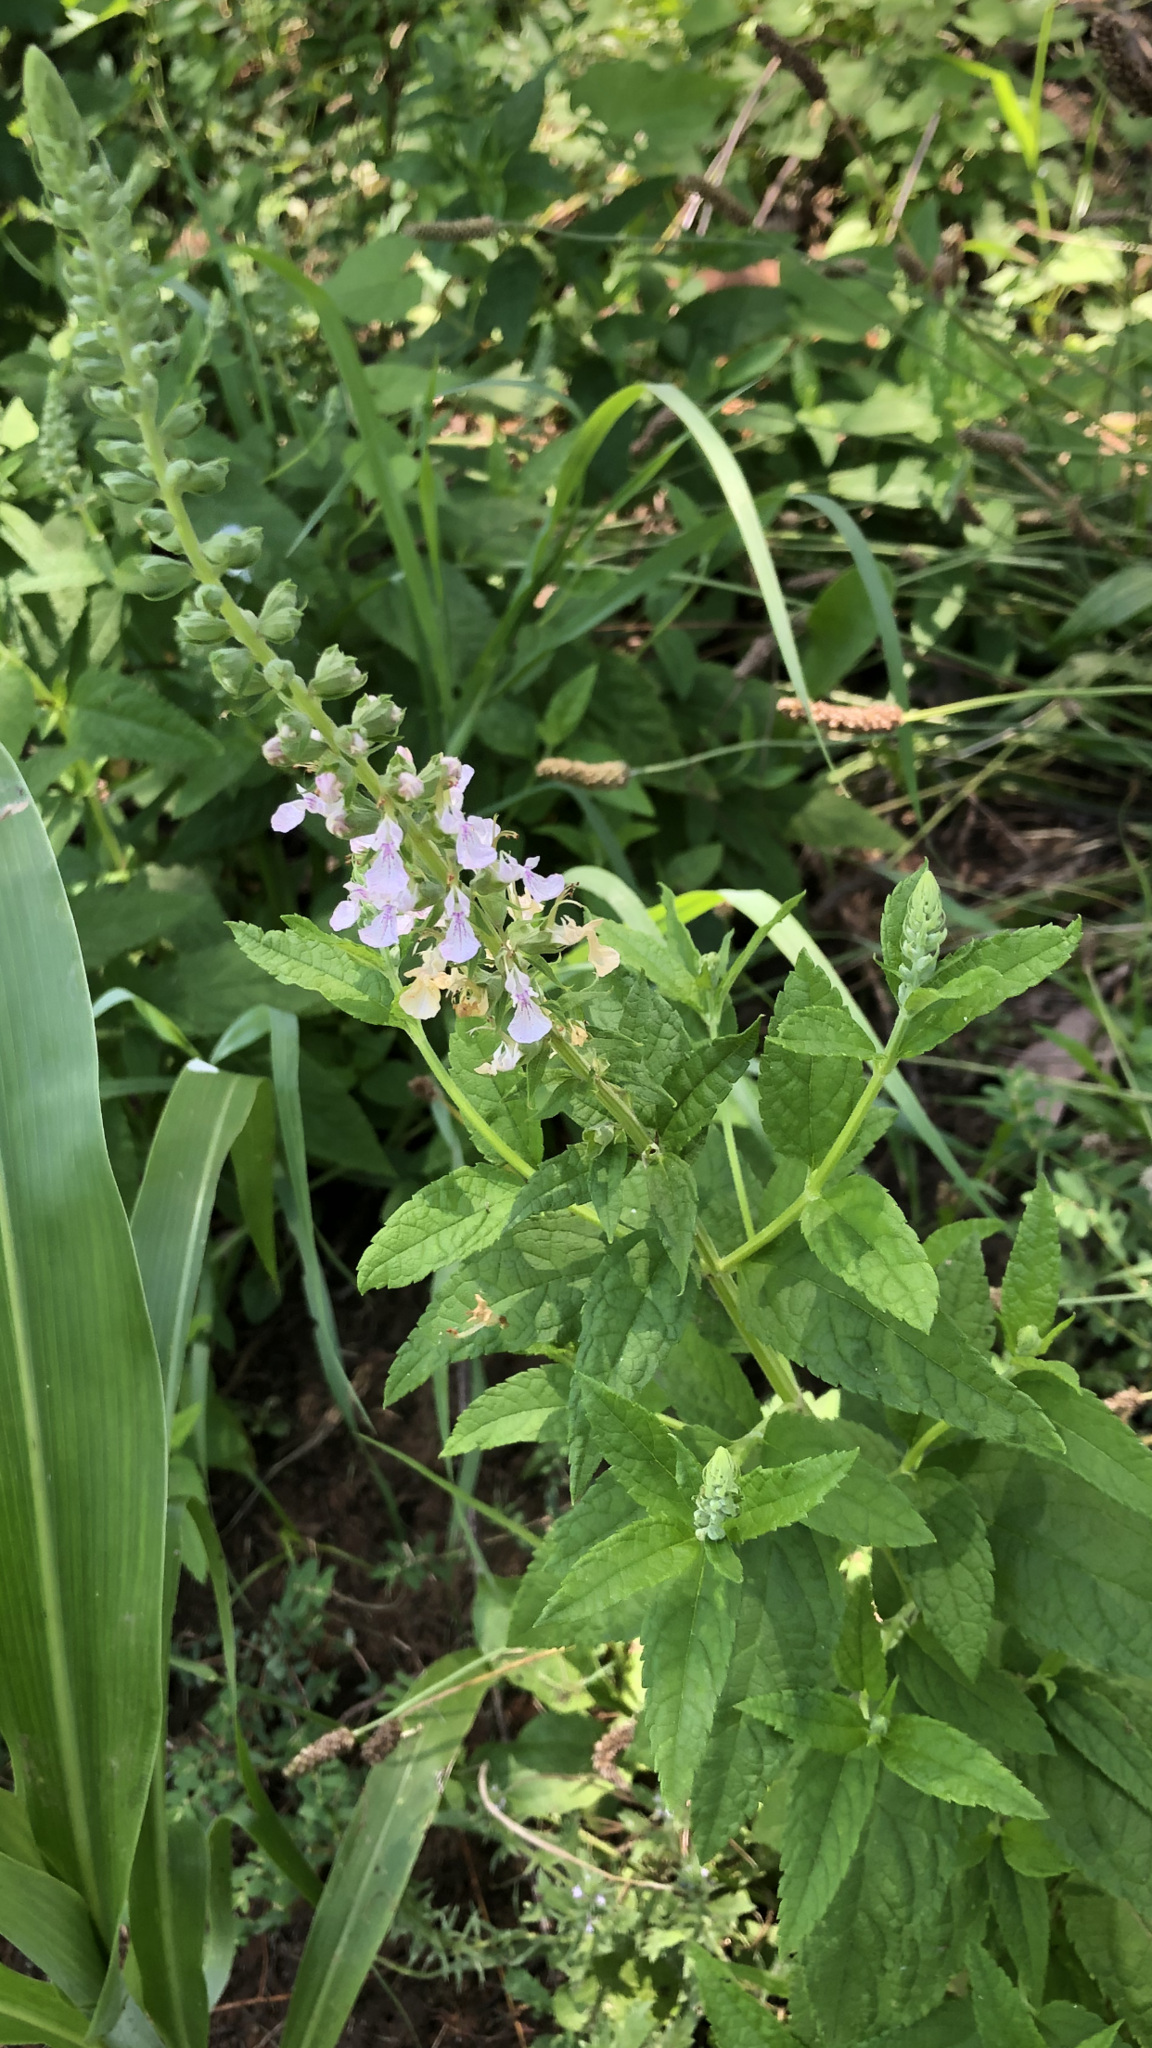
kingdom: Plantae
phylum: Tracheophyta
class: Magnoliopsida
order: Lamiales
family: Lamiaceae
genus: Teucrium
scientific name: Teucrium canadense
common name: American germander
